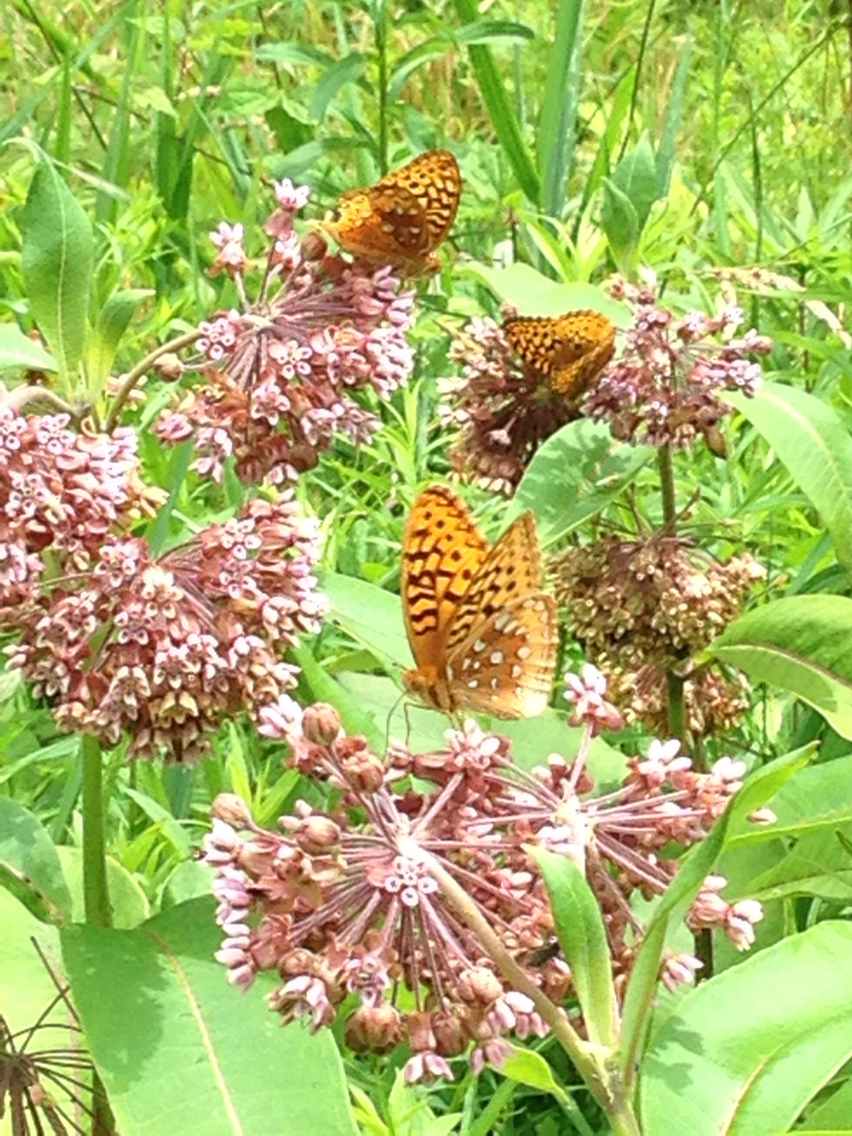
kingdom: Animalia
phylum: Arthropoda
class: Insecta
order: Lepidoptera
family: Nymphalidae
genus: Speyeria
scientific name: Speyeria cybele
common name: Great spangled fritillary
